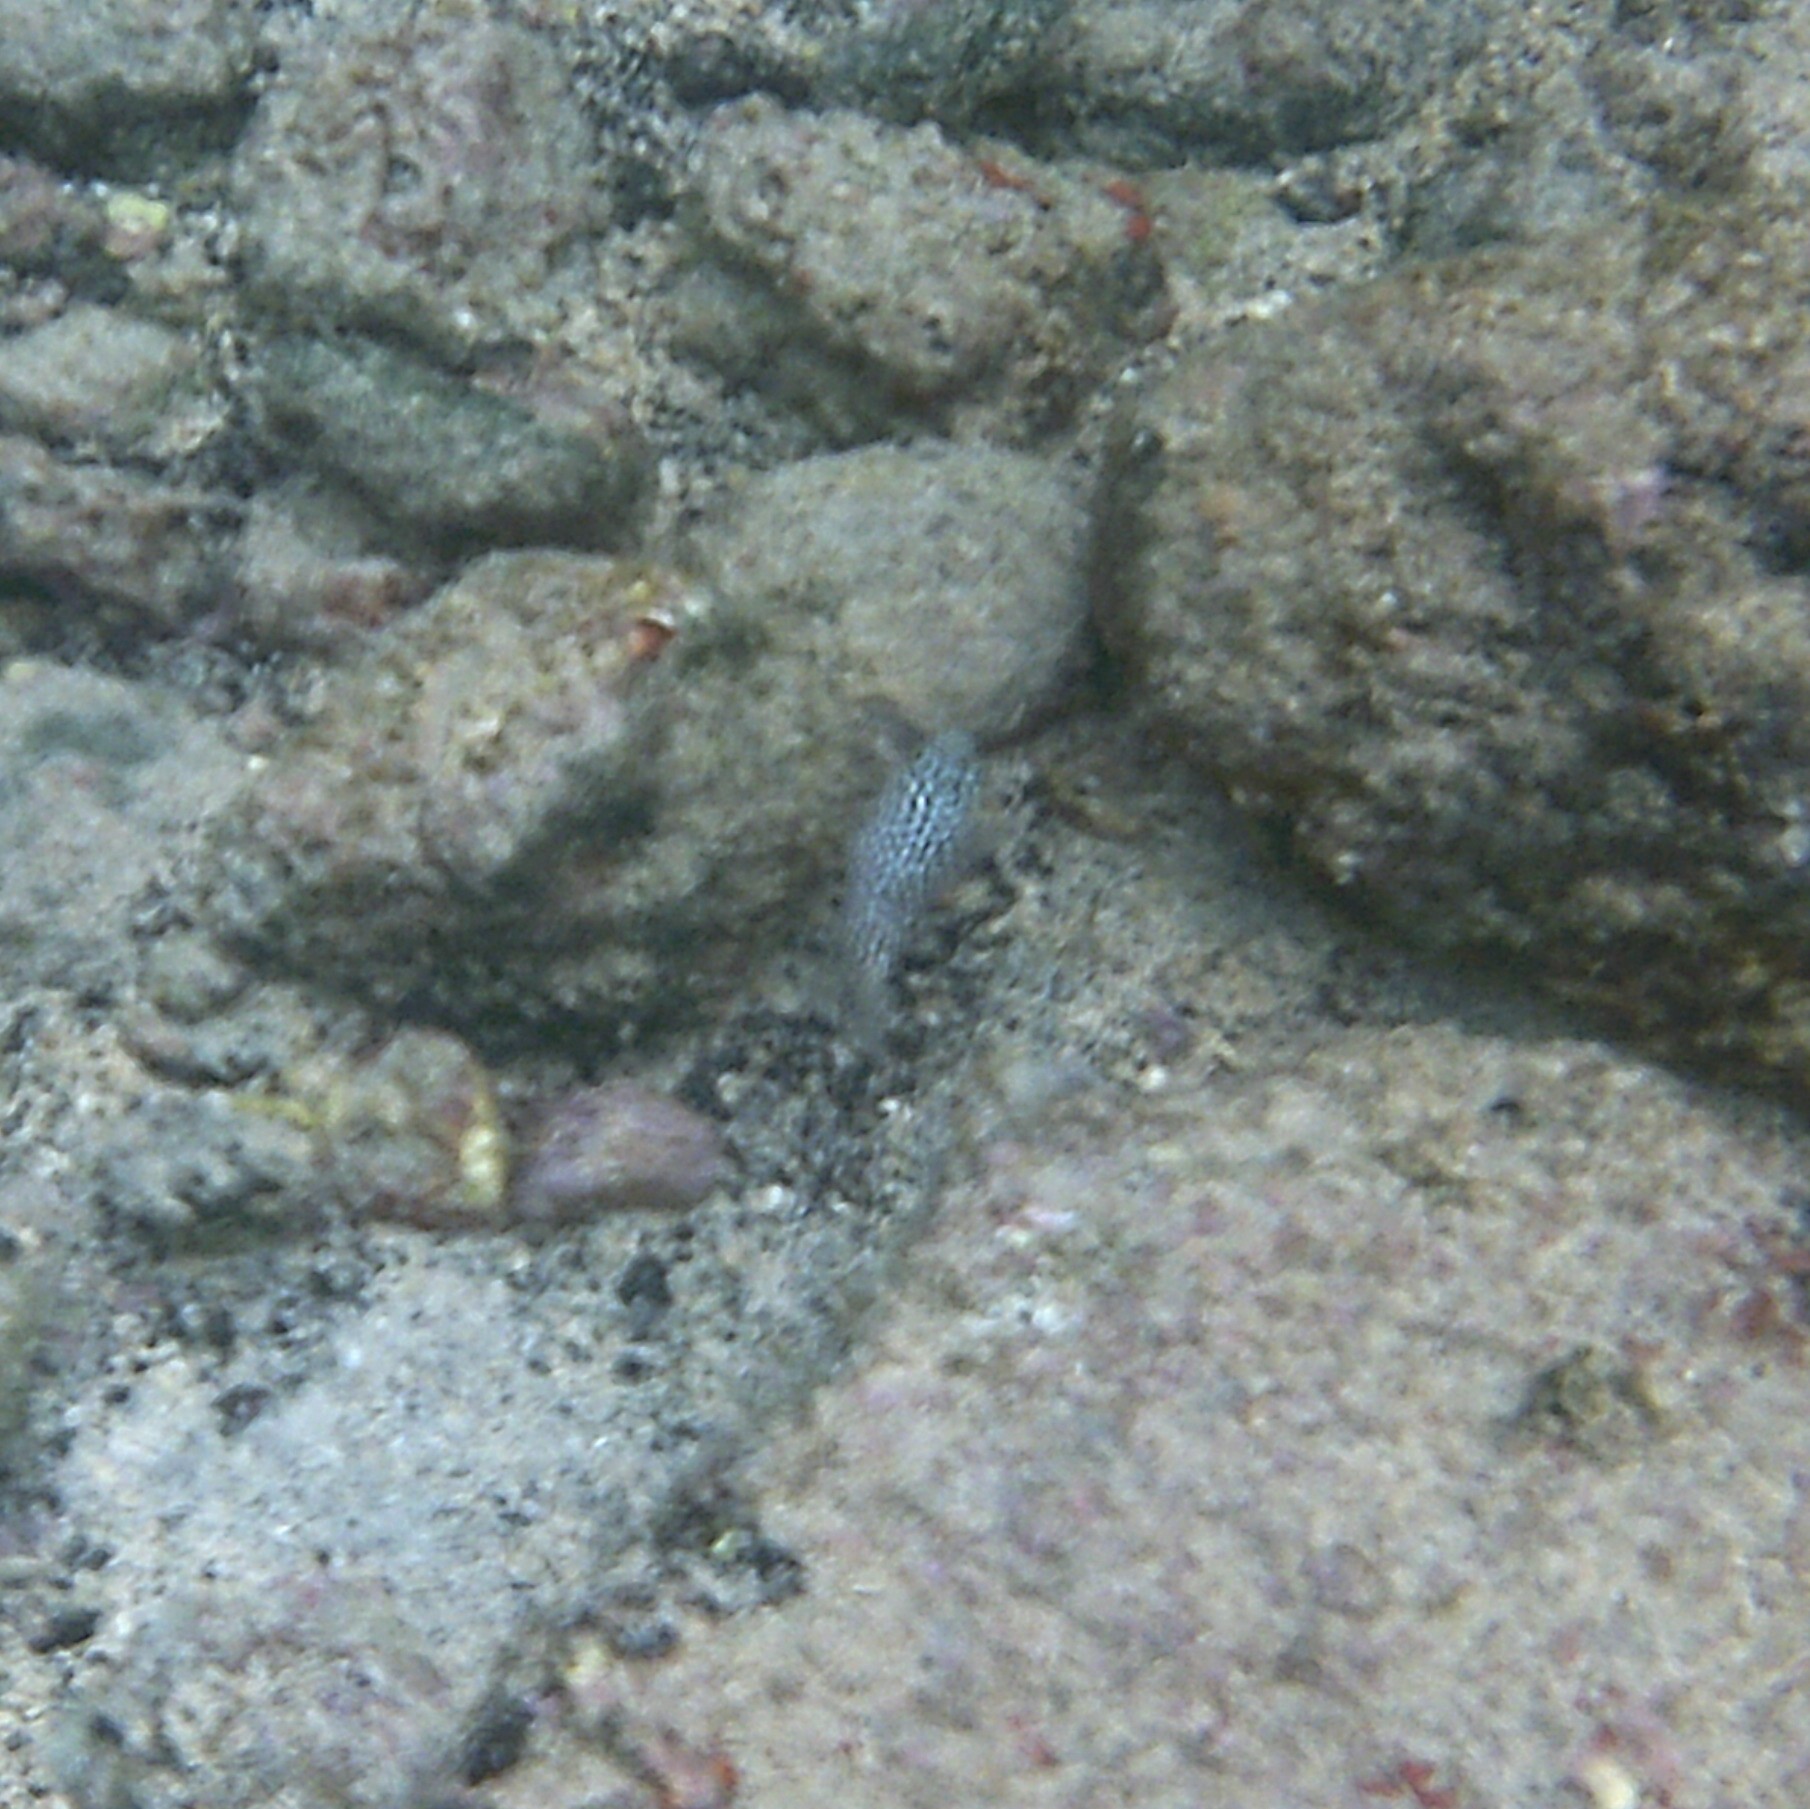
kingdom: Animalia
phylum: Chordata
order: Tetraodontiformes
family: Tetraodontidae
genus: Canthigaster
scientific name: Canthigaster jactator
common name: Hawaiian whitespotted toby
